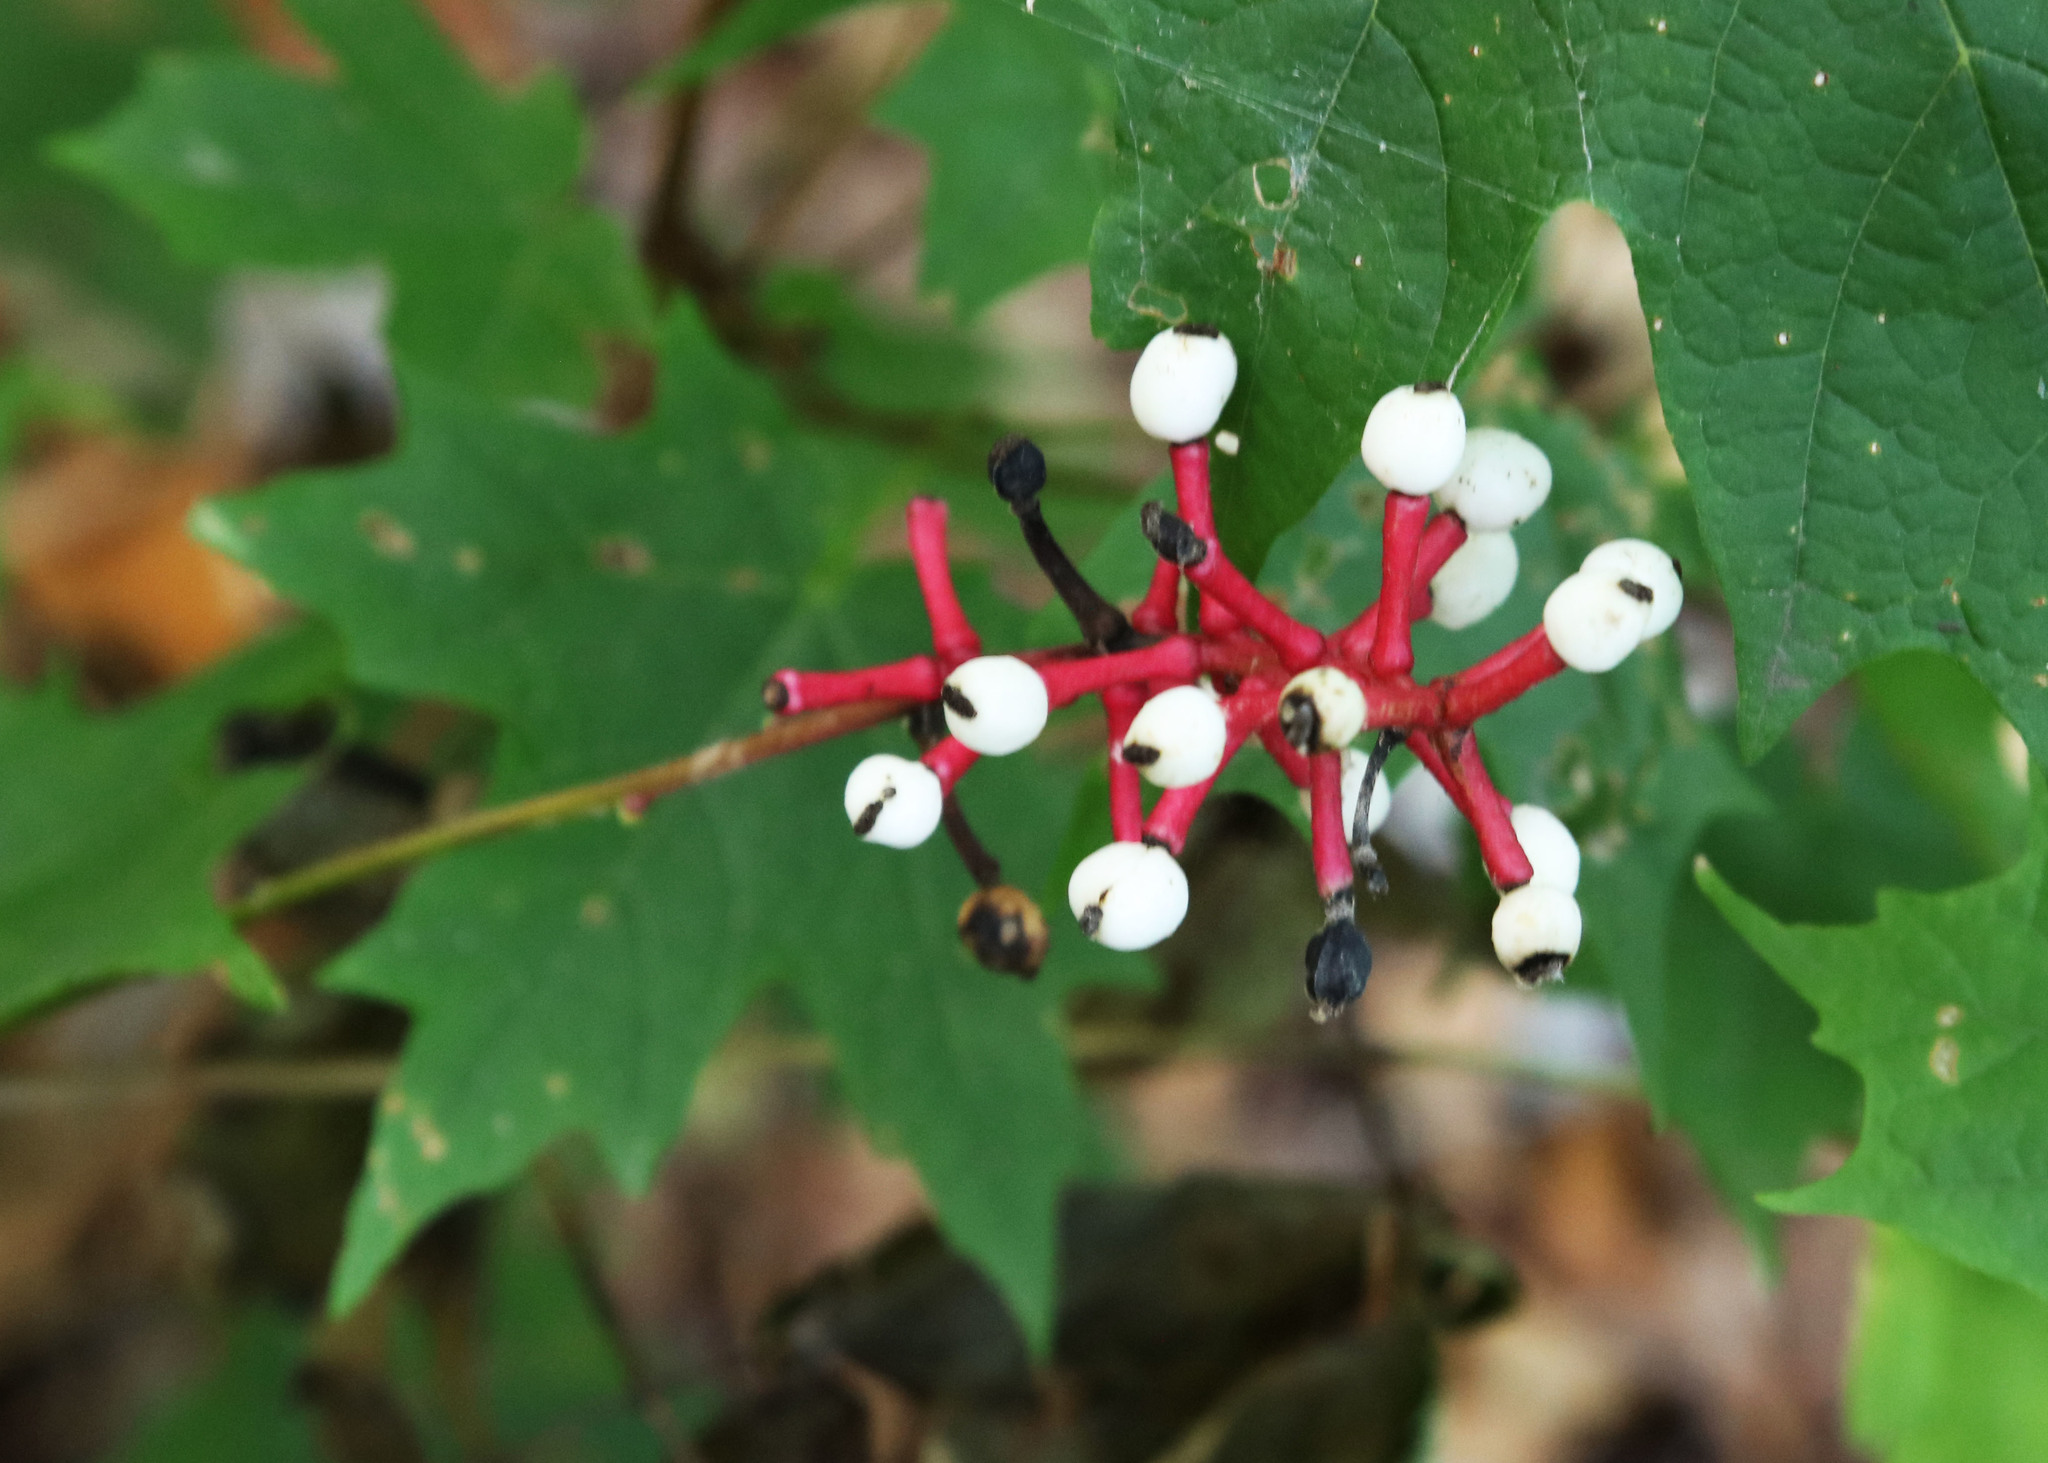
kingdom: Plantae
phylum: Tracheophyta
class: Magnoliopsida
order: Ranunculales
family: Ranunculaceae
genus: Actaea
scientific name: Actaea pachypoda
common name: Doll's-eyes
